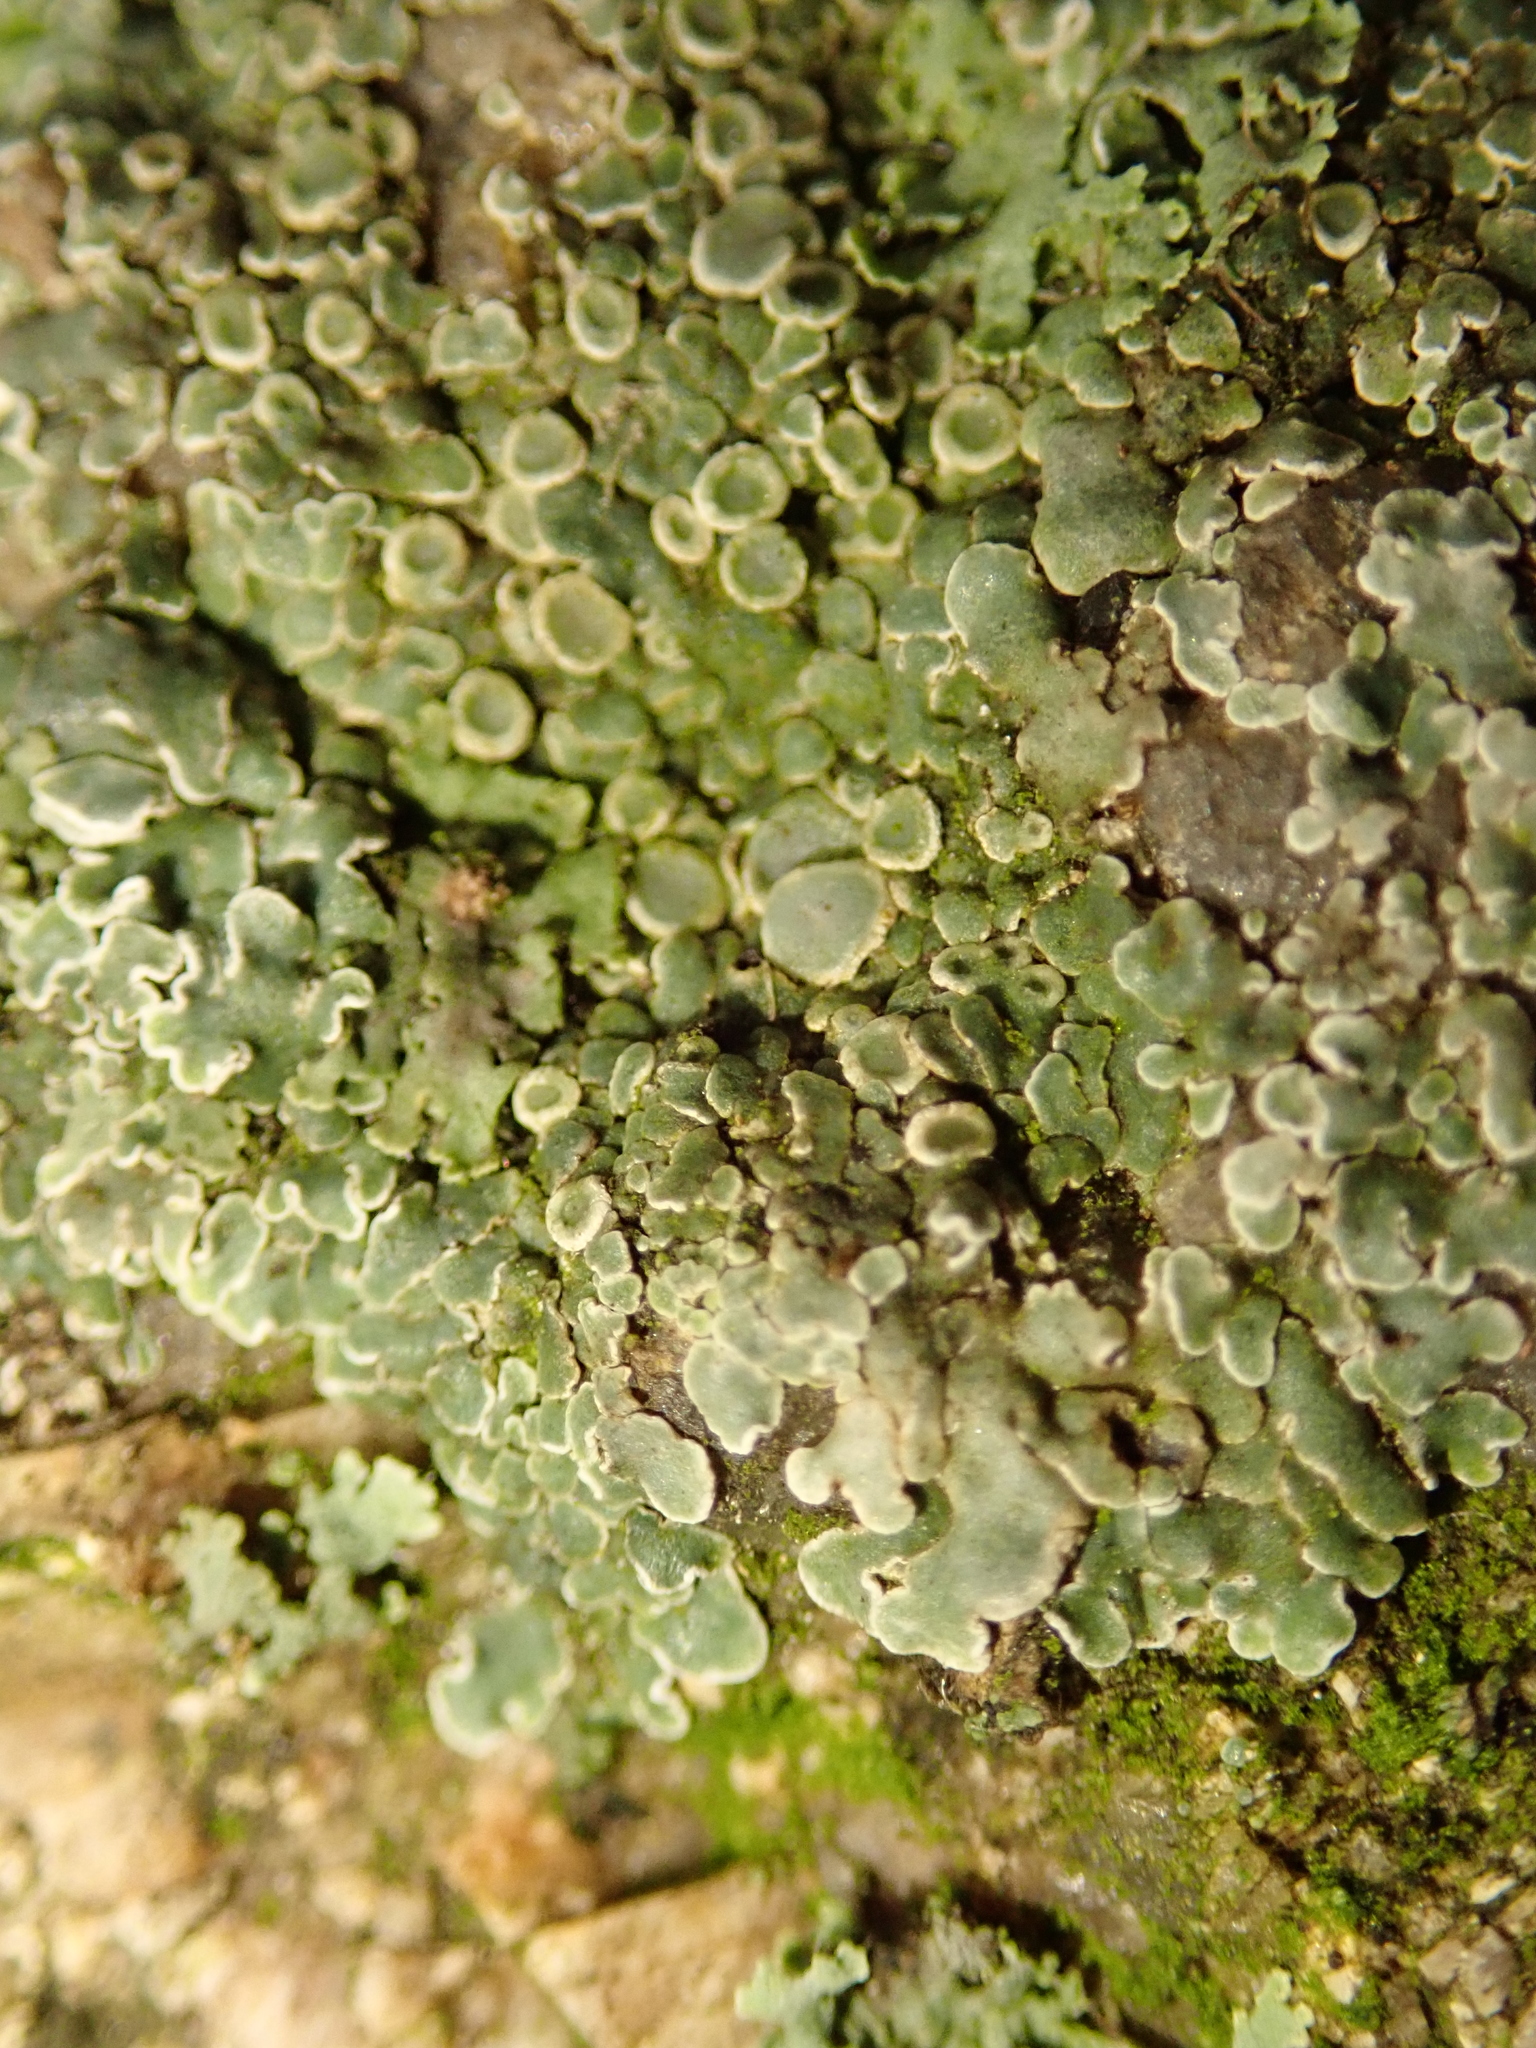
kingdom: Fungi
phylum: Ascomycota
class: Lecanoromycetes
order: Lecanorales
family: Lecanoraceae
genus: Protoparmeliopsis
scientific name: Protoparmeliopsis muralis
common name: Stonewall rim lichen
